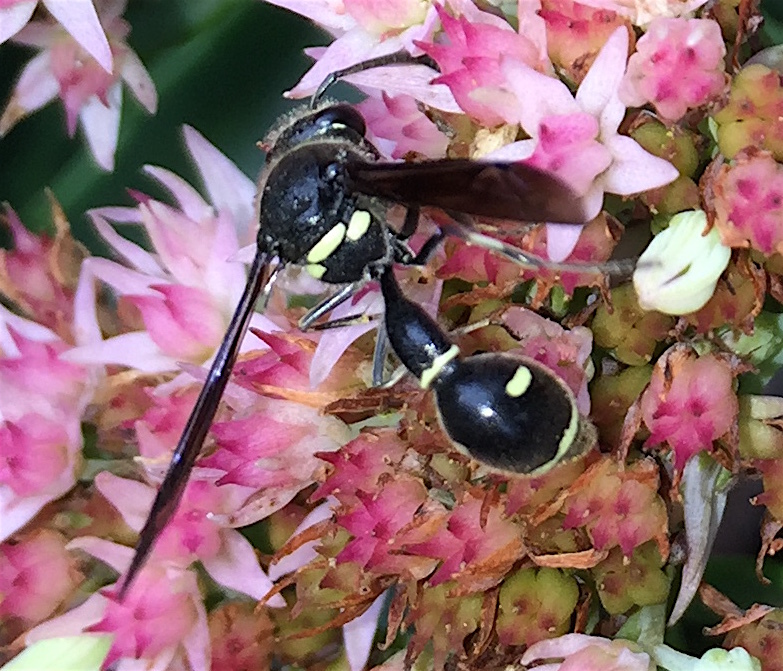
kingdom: Animalia
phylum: Arthropoda
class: Insecta
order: Hymenoptera
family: Vespidae
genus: Eumenes
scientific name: Eumenes fraternus
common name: Fraternal potter wasp
